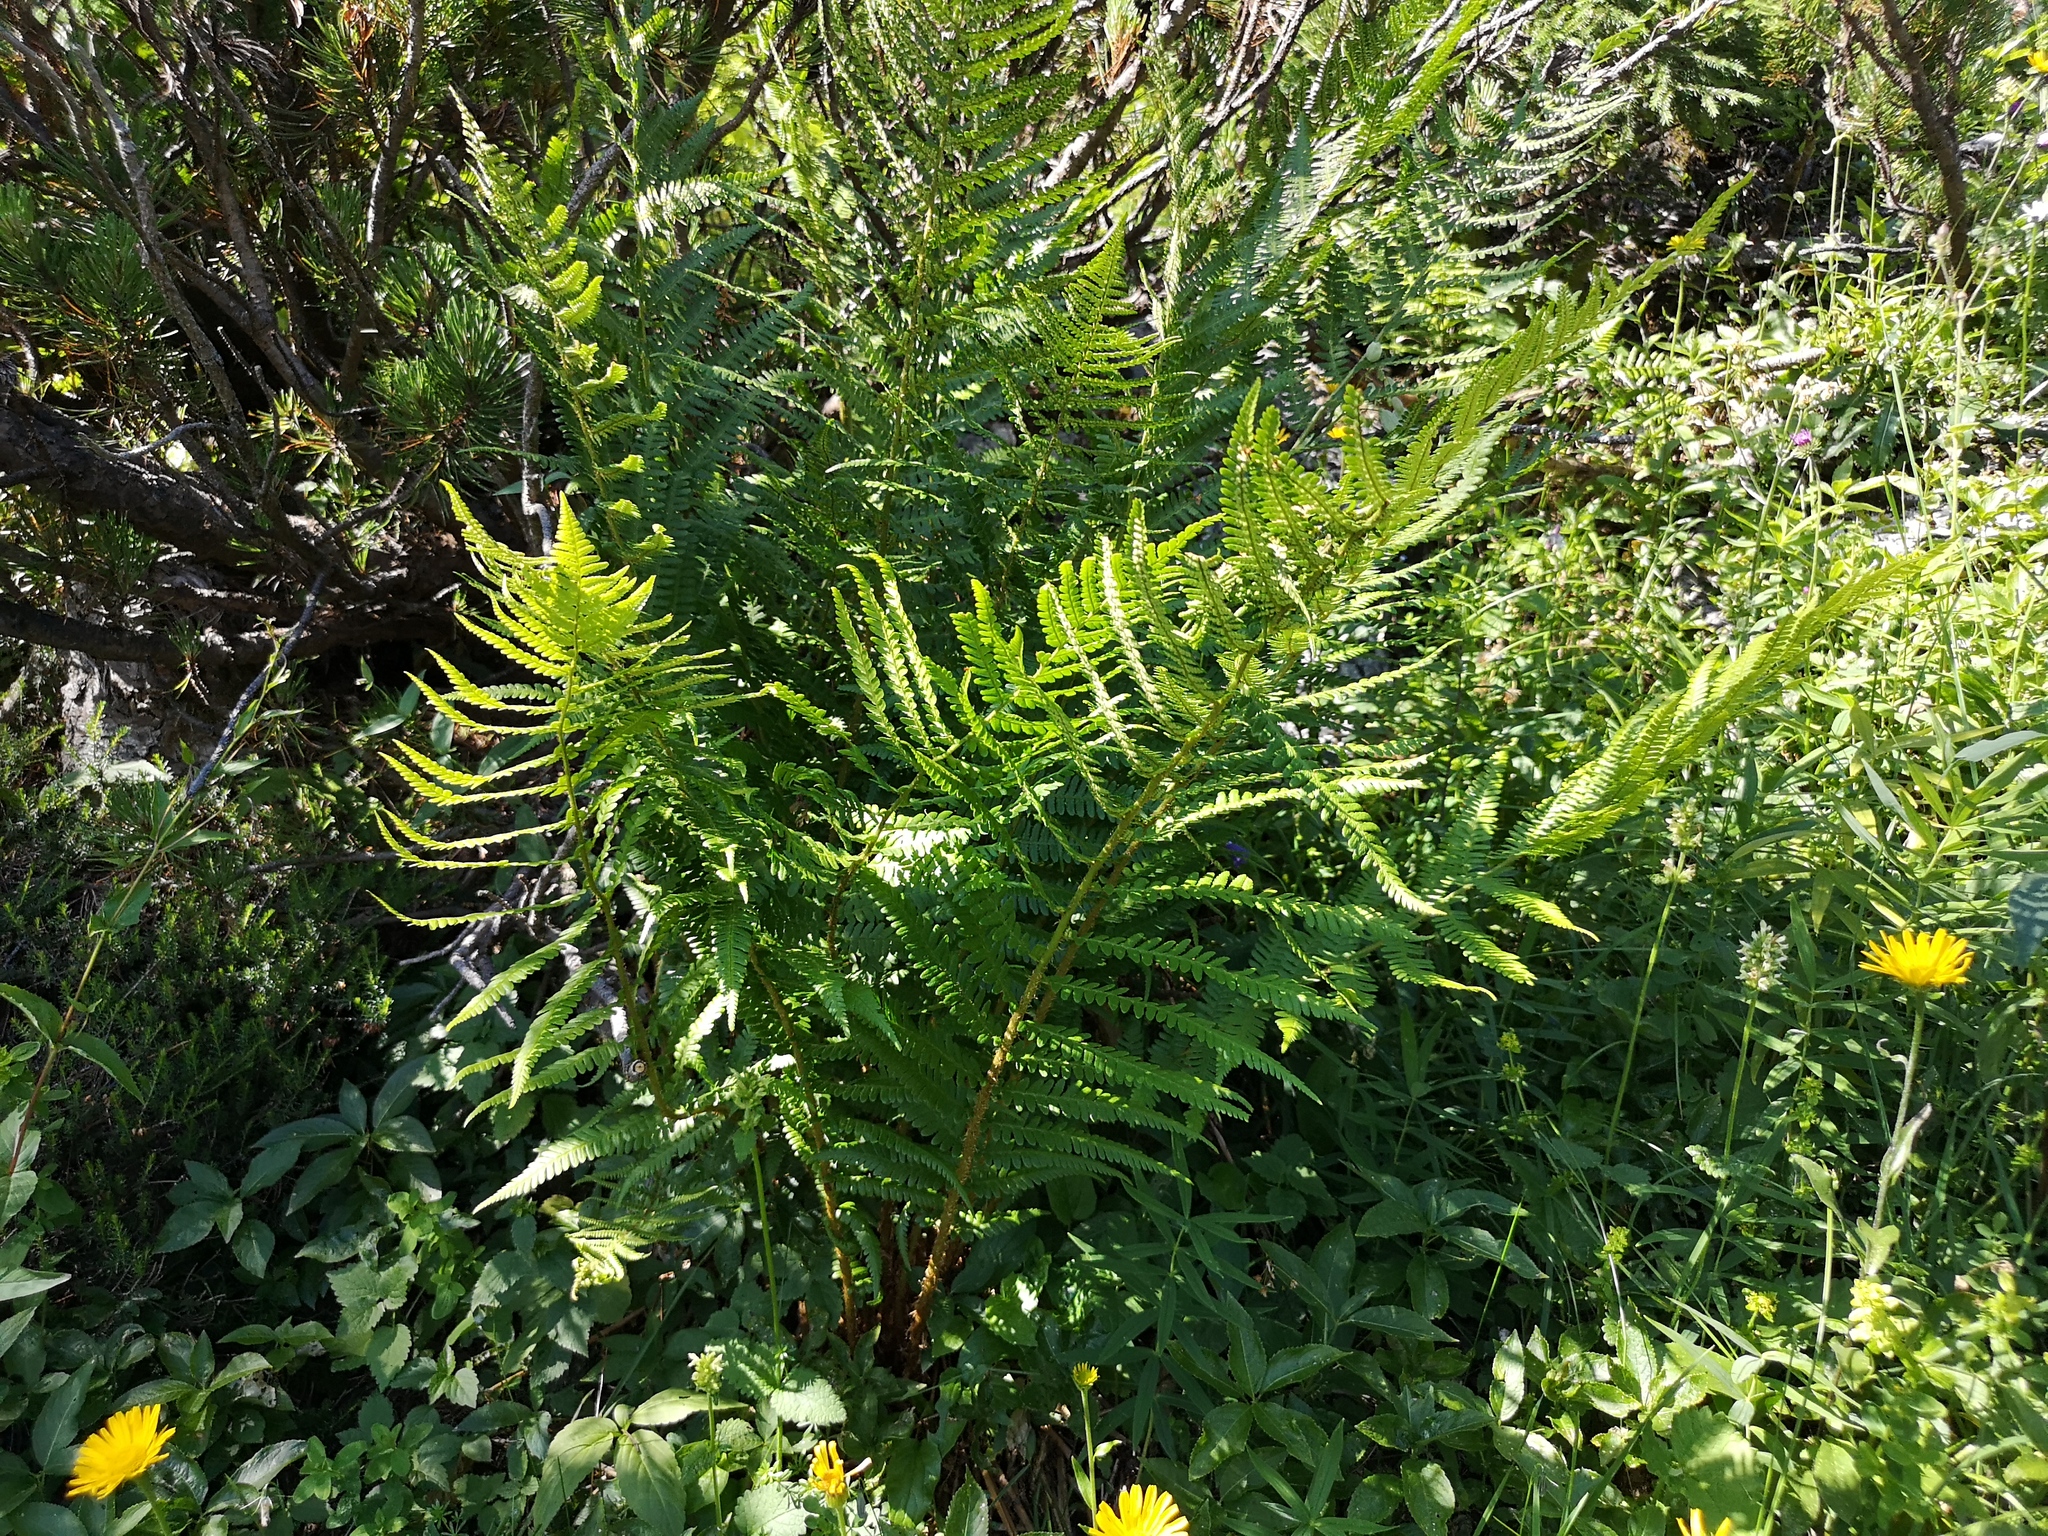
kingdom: Plantae
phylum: Tracheophyta
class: Polypodiopsida
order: Polypodiales
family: Dryopteridaceae
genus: Dryopteris
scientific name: Dryopteris filix-mas
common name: Male fern
